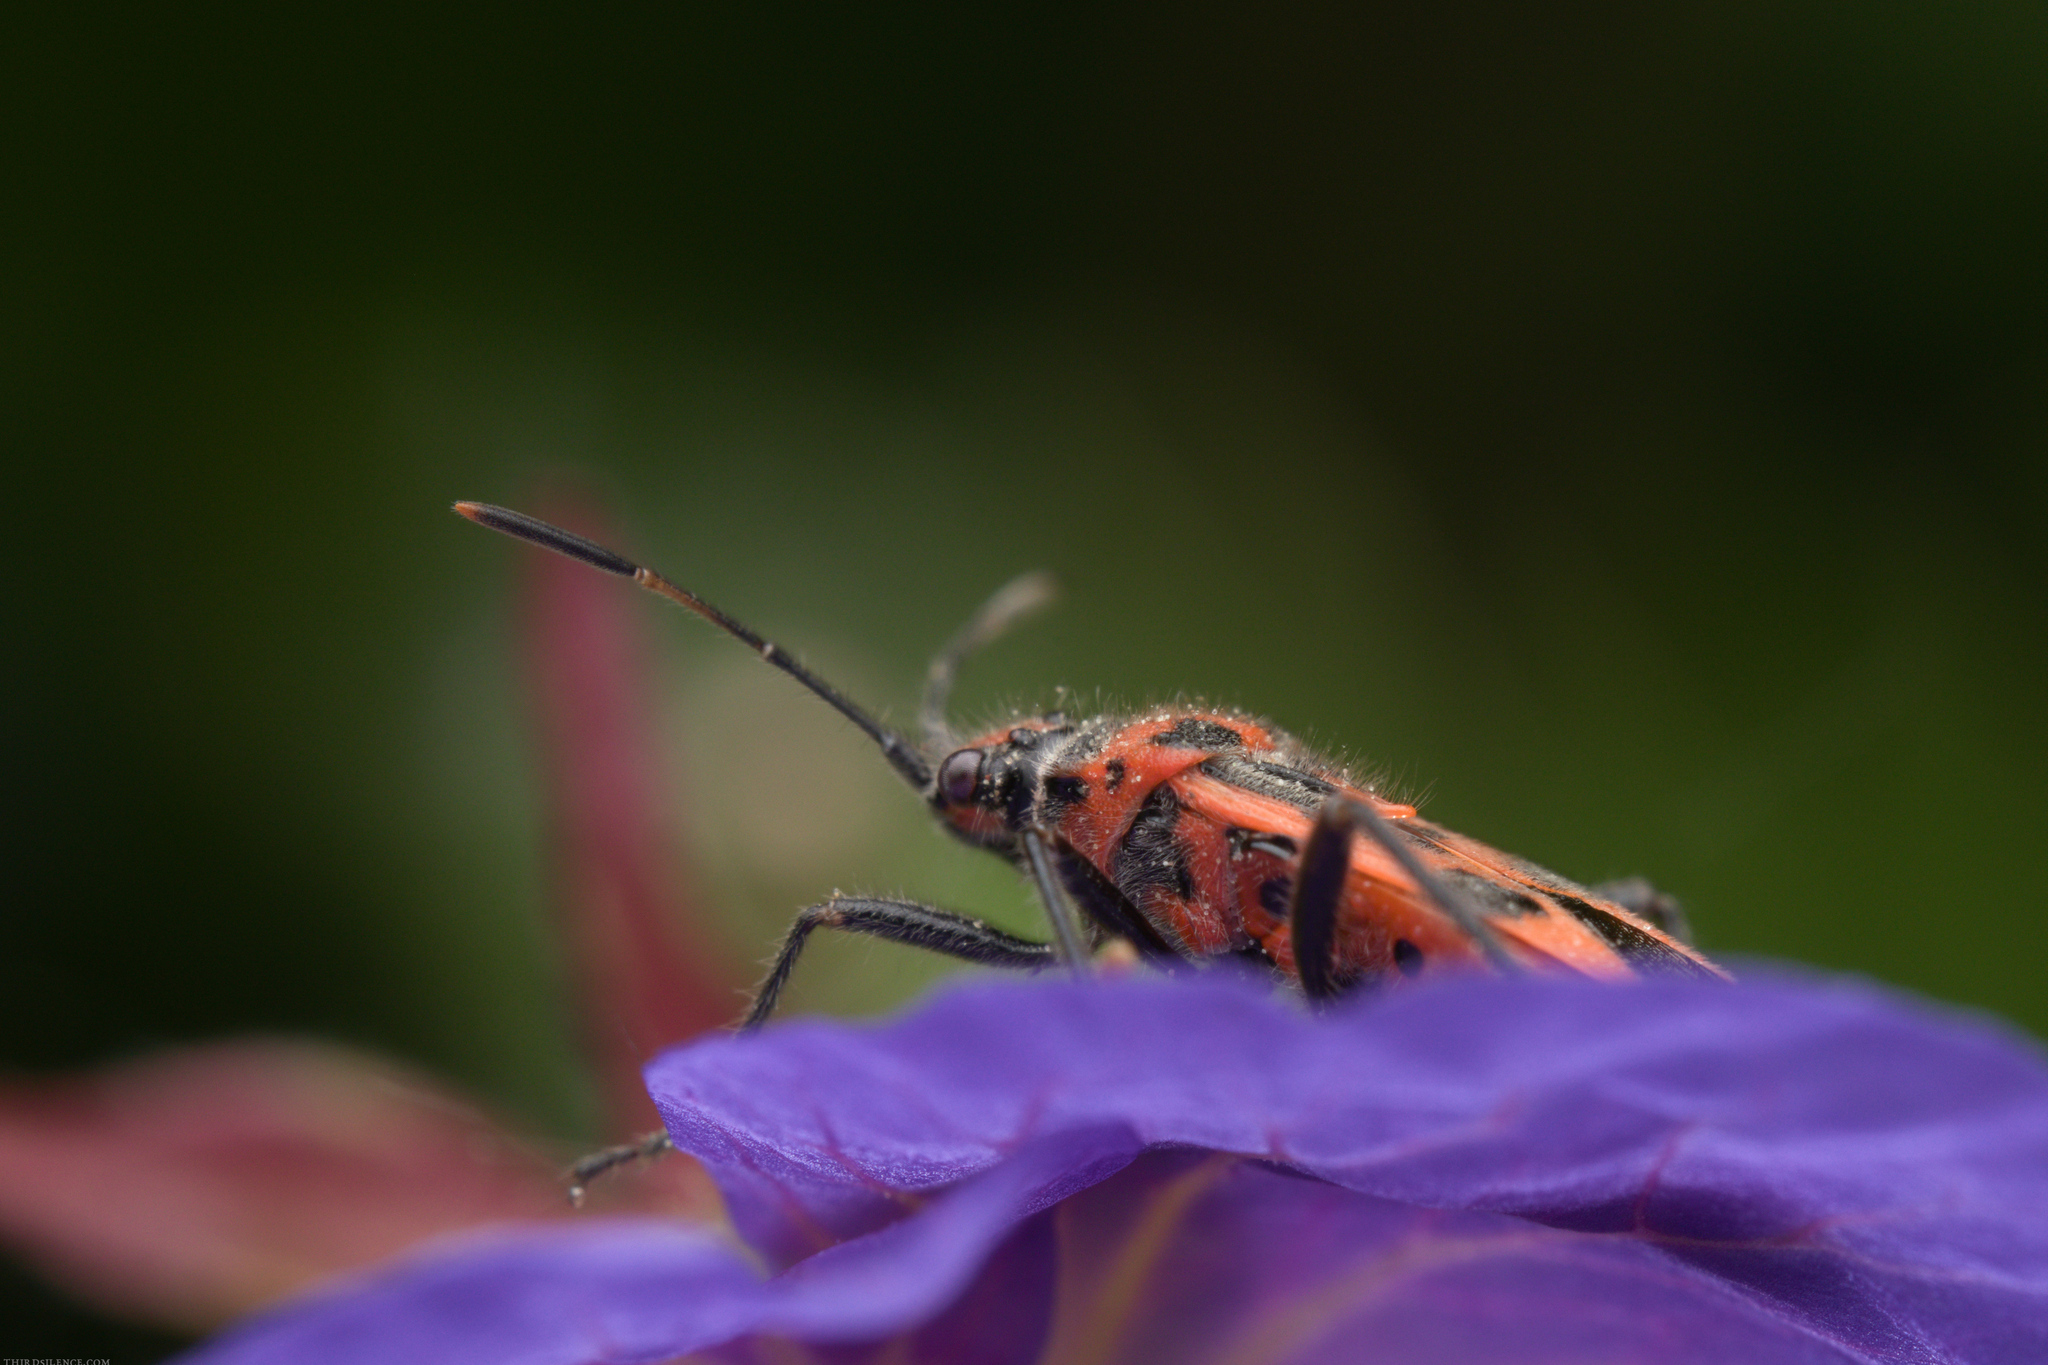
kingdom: Animalia
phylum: Arthropoda
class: Insecta
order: Hemiptera
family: Rhopalidae
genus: Corizus
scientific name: Corizus hyoscyami
